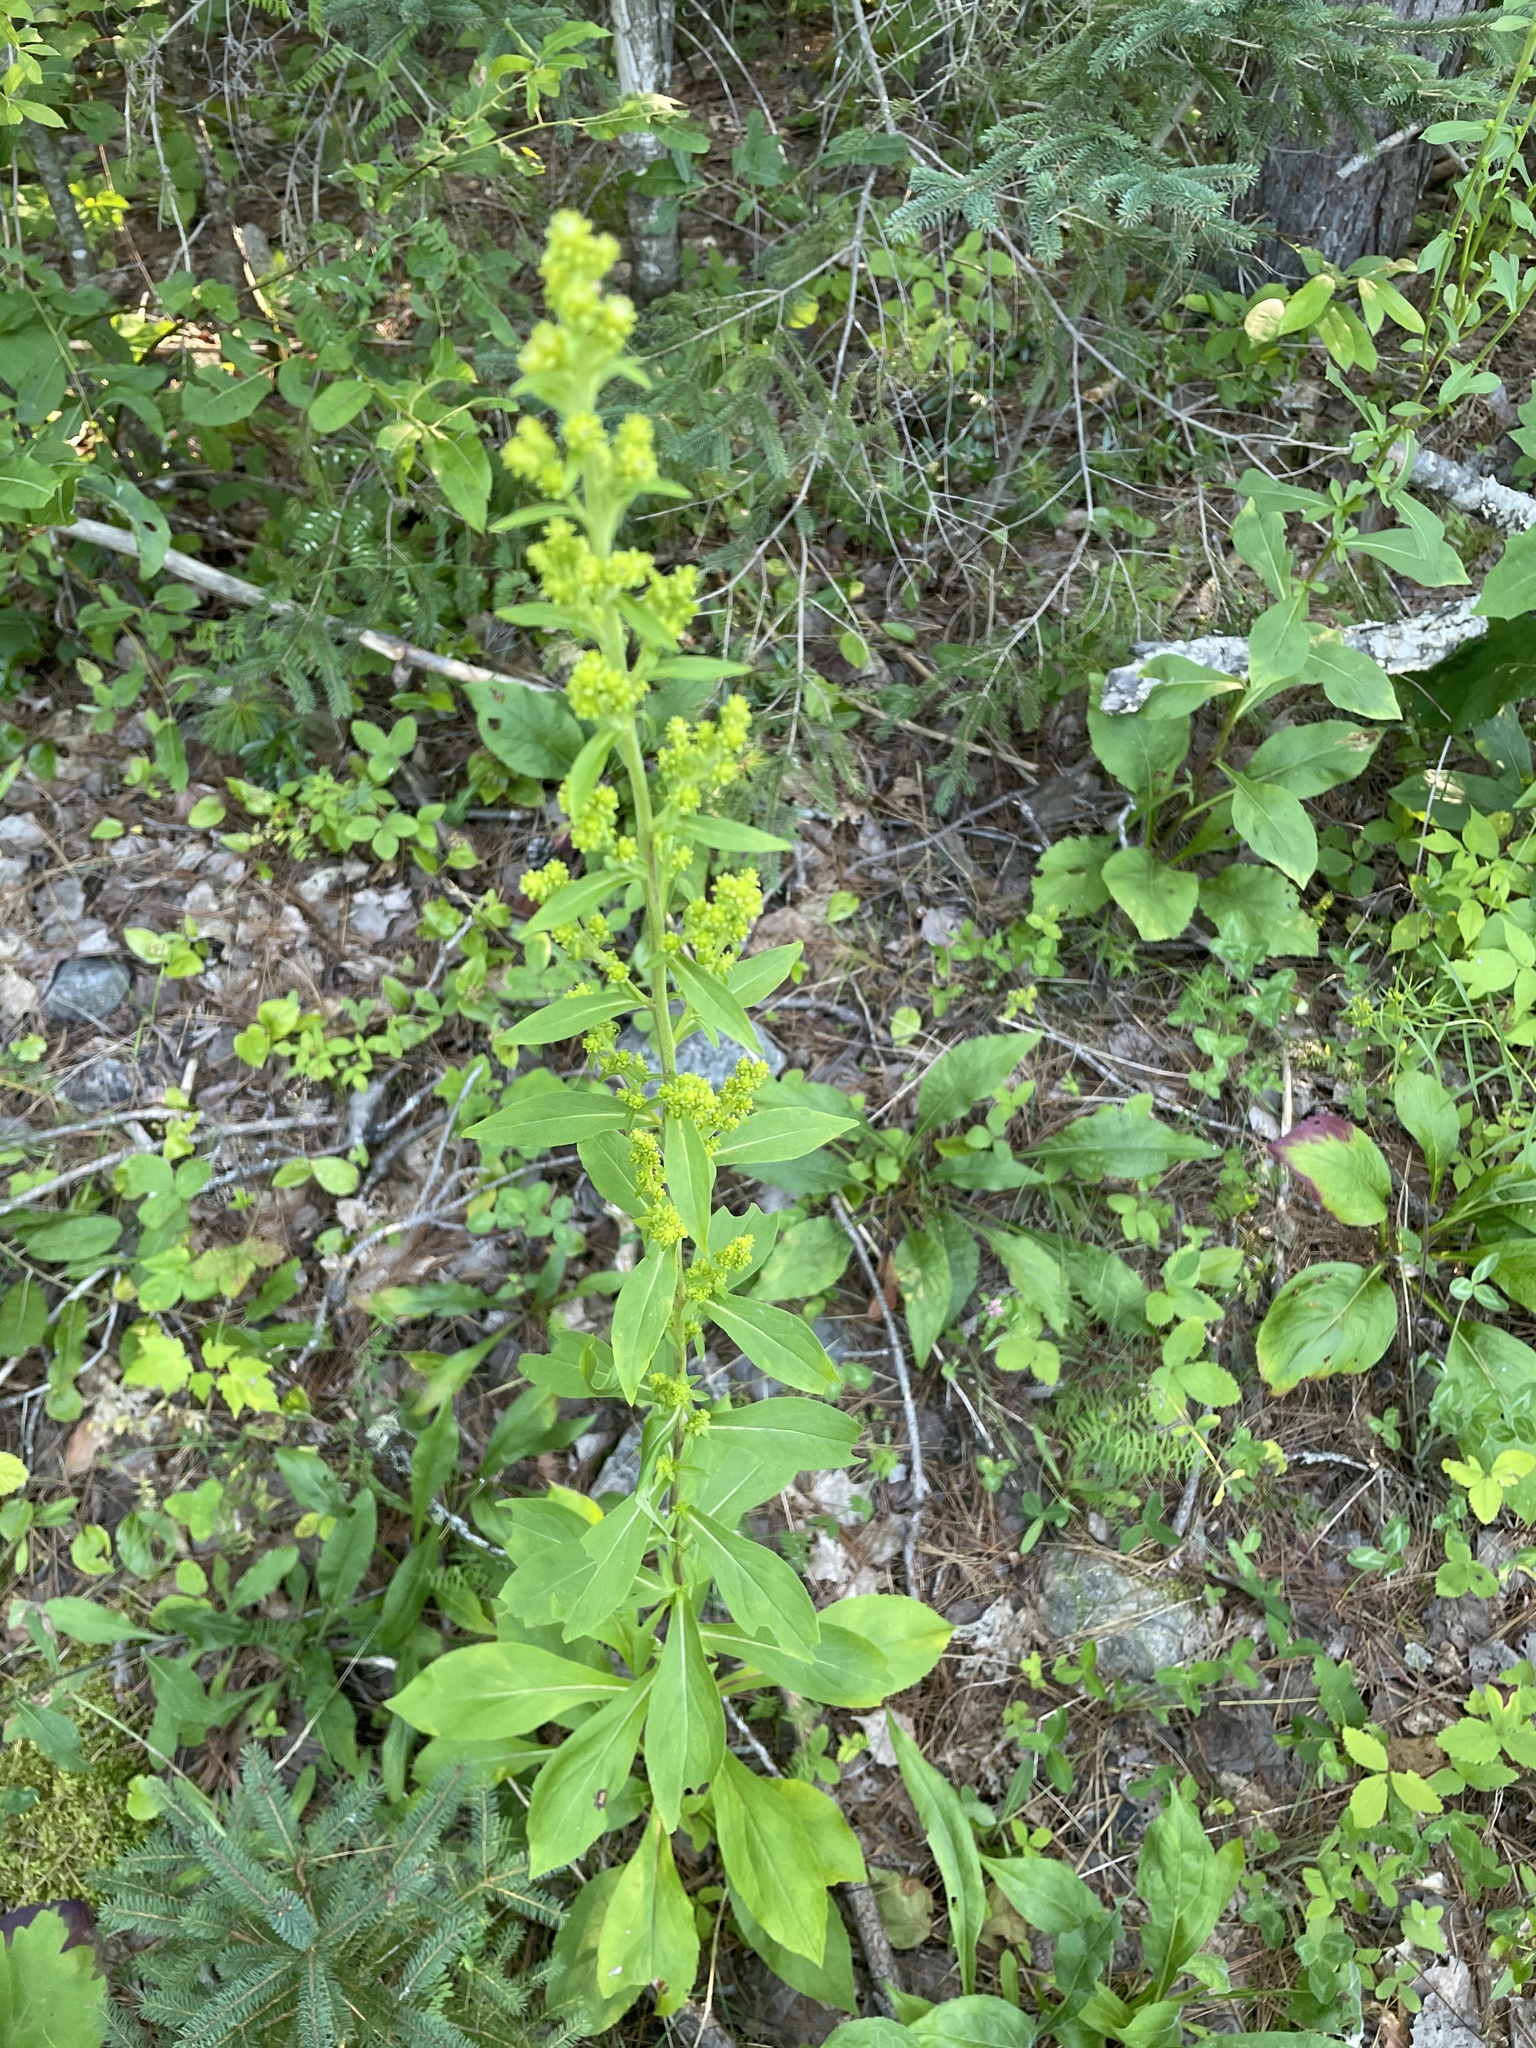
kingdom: Plantae
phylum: Tracheophyta
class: Magnoliopsida
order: Asterales
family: Asteraceae
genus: Solidago
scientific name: Solidago squarrosa
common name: Stout goldenrod
